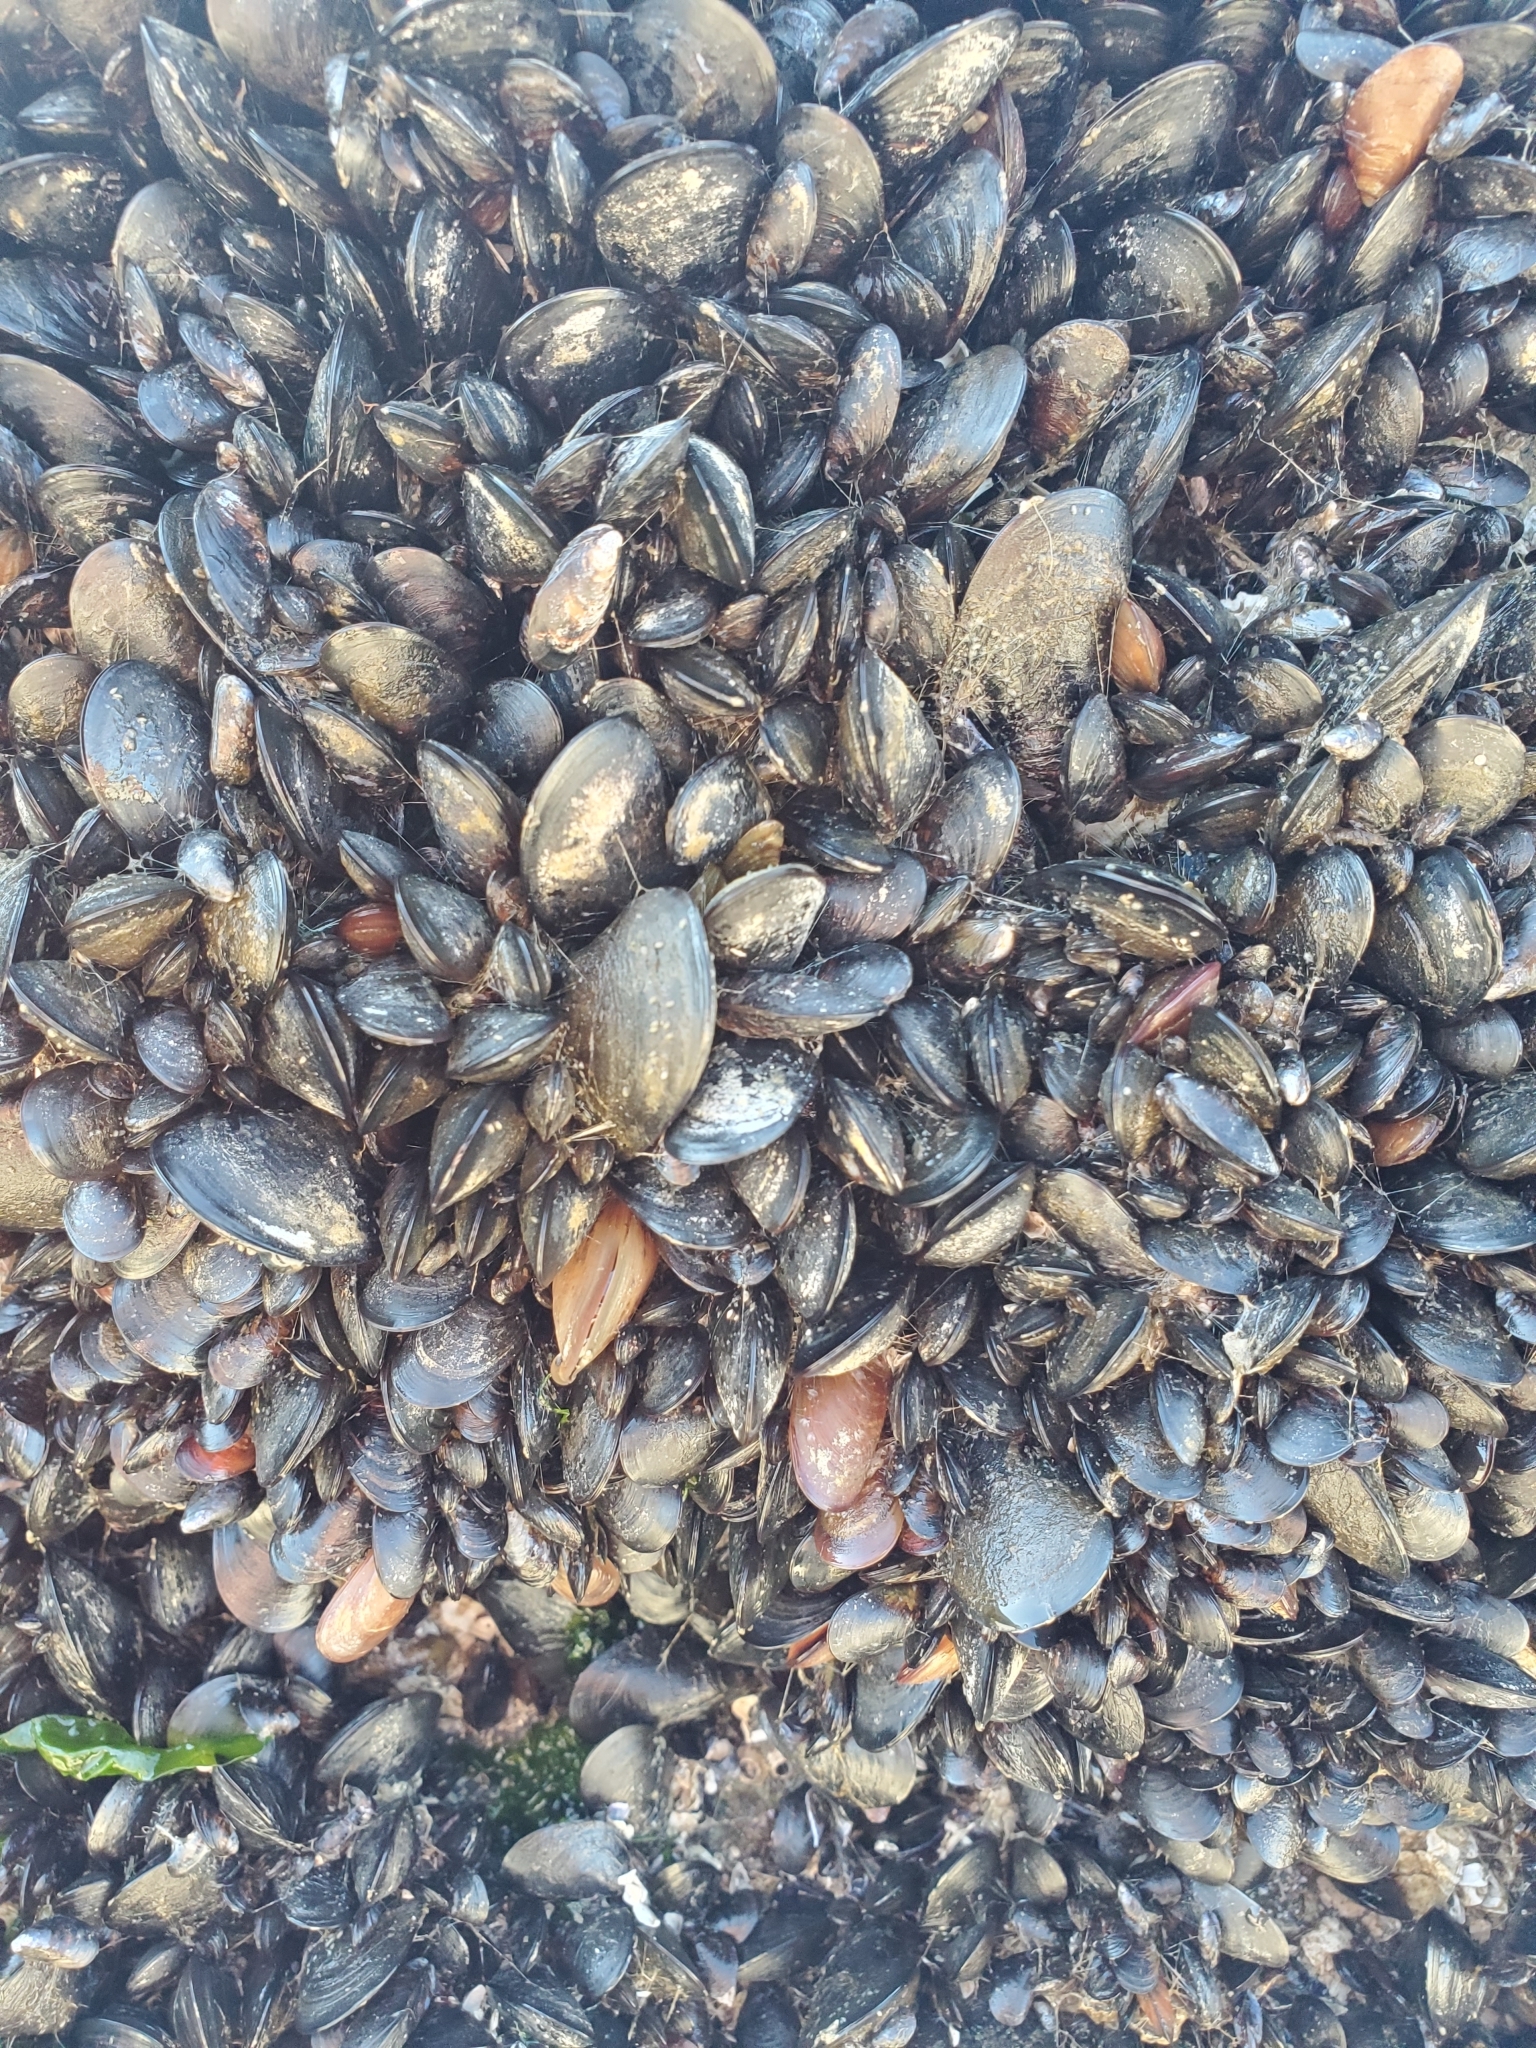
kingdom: Animalia
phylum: Mollusca
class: Bivalvia
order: Mytilida
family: Mytilidae
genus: Mytilus
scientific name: Mytilus
